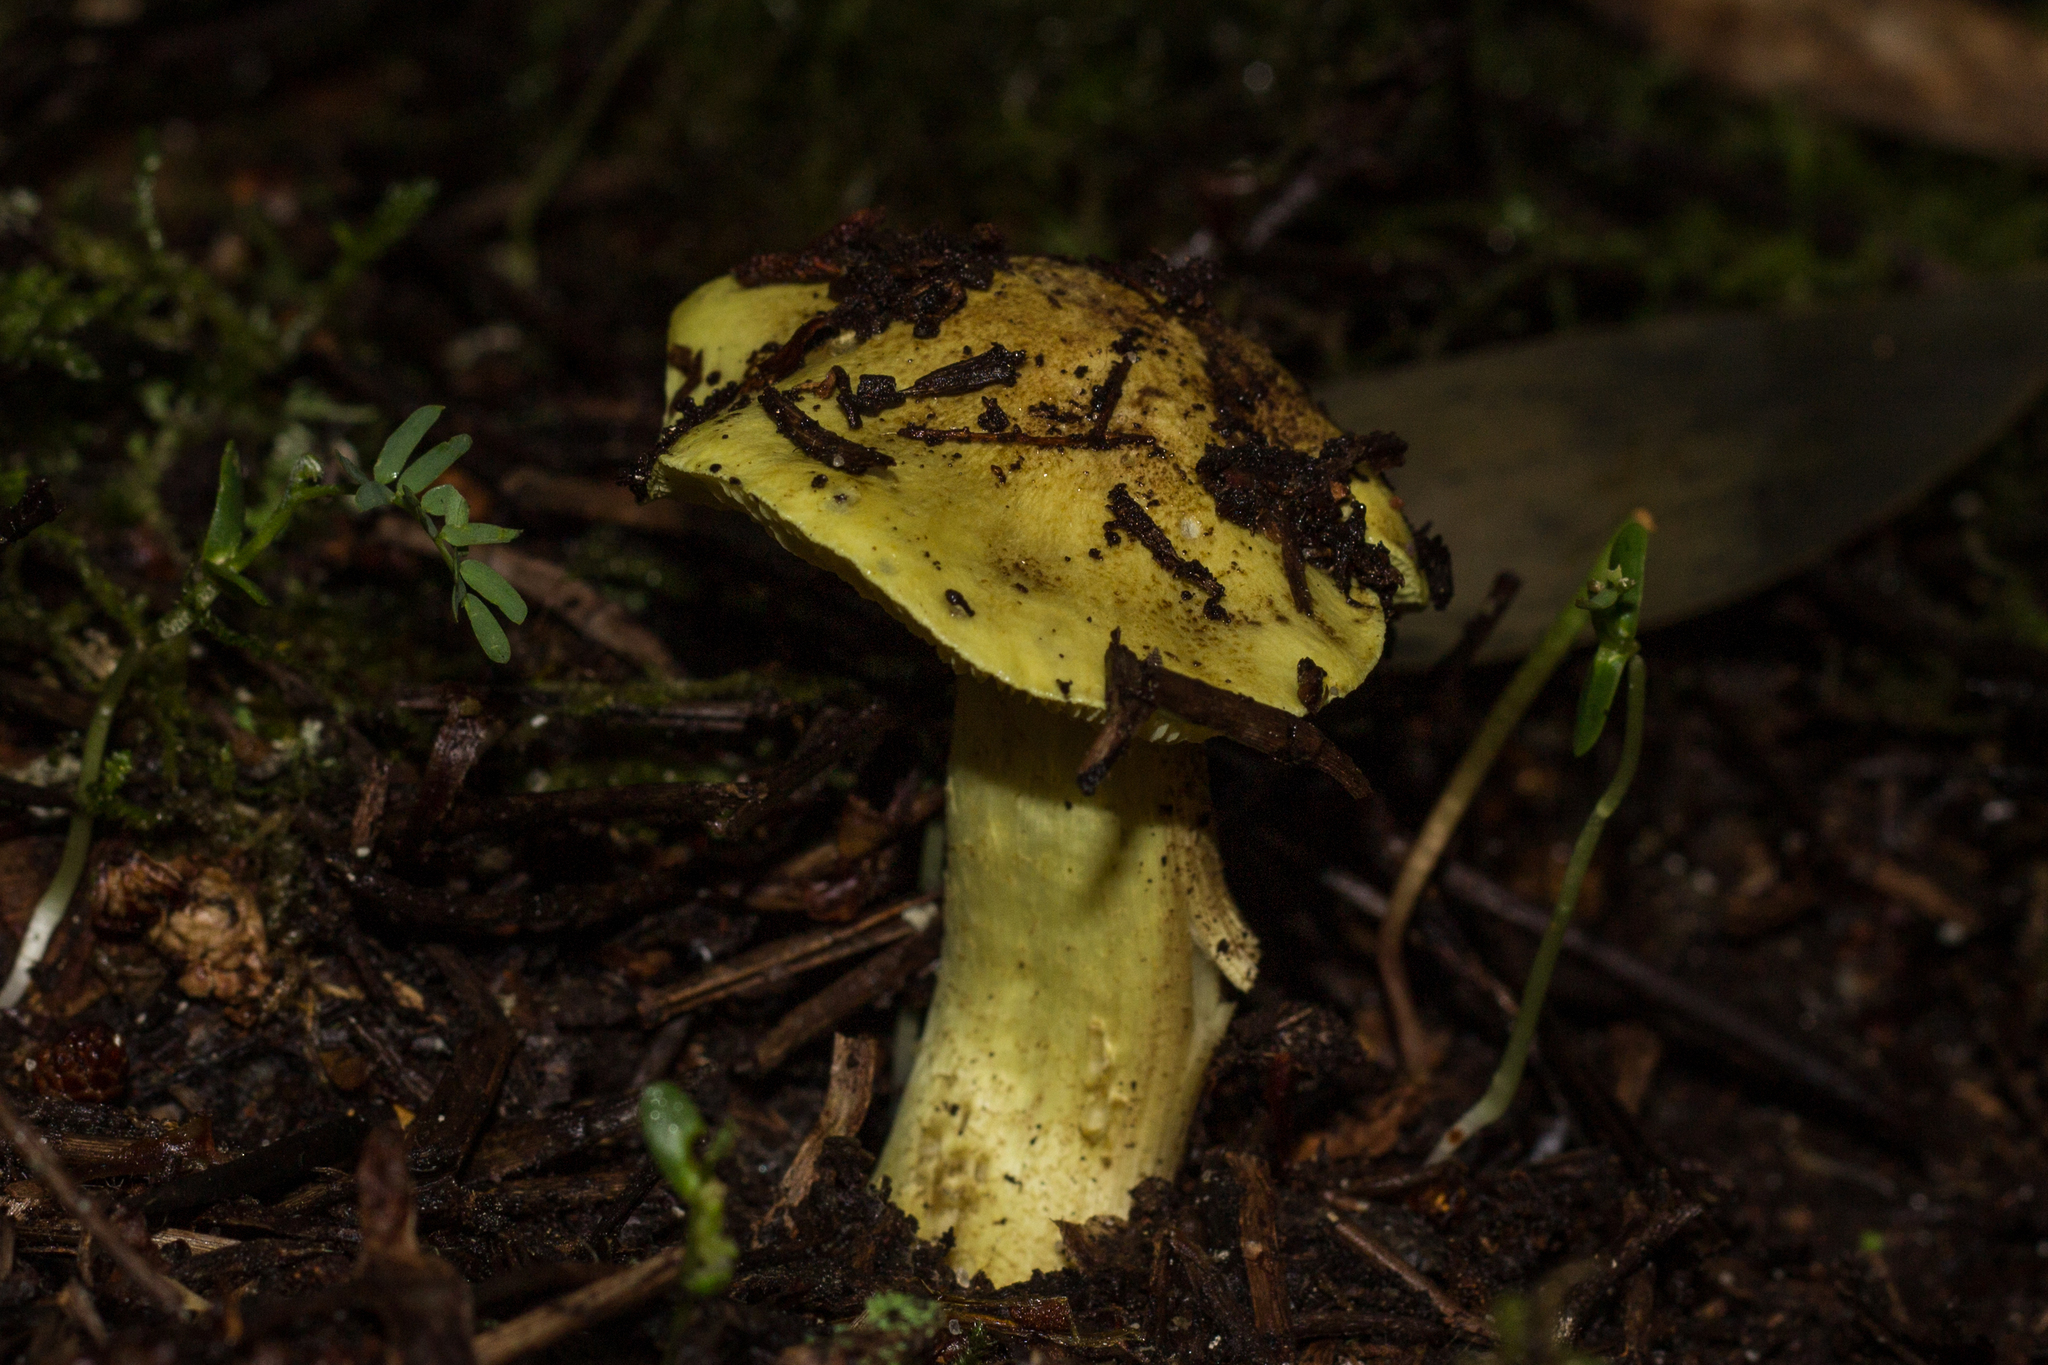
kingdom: Fungi
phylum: Basidiomycota
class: Agaricomycetes
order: Agaricales
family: Tricholomataceae
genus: Tricholoma
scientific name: Tricholoma equestre
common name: Yellow knight
